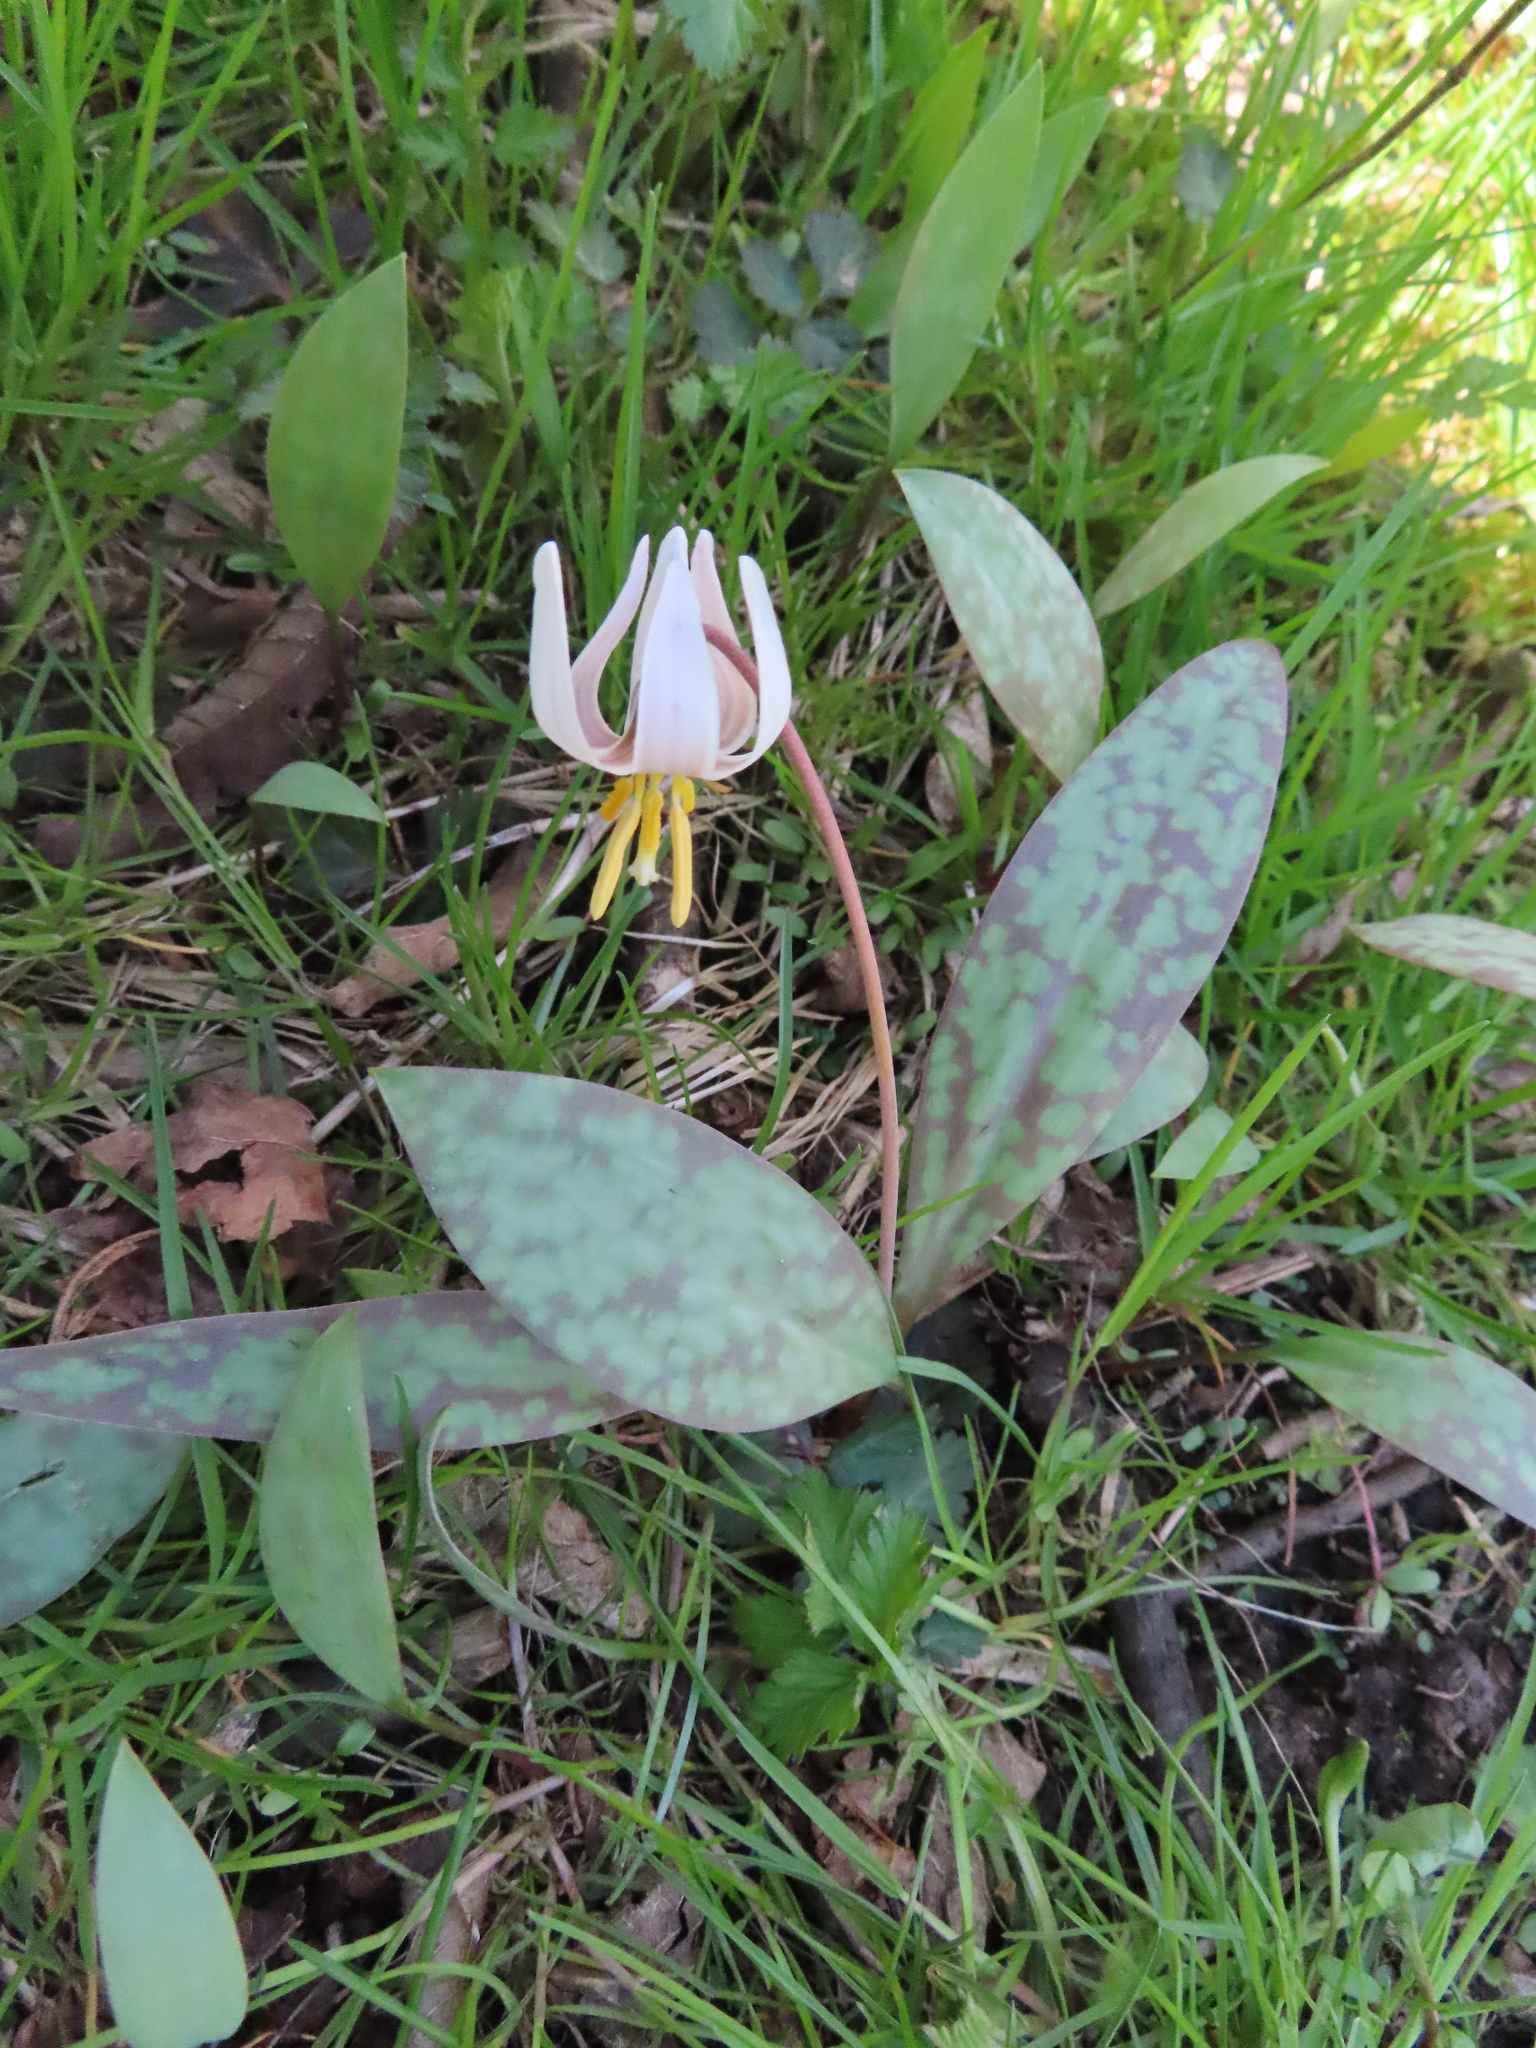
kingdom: Plantae
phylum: Tracheophyta
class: Liliopsida
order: Liliales
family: Liliaceae
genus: Erythronium
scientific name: Erythronium albidum
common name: White trout-lily
